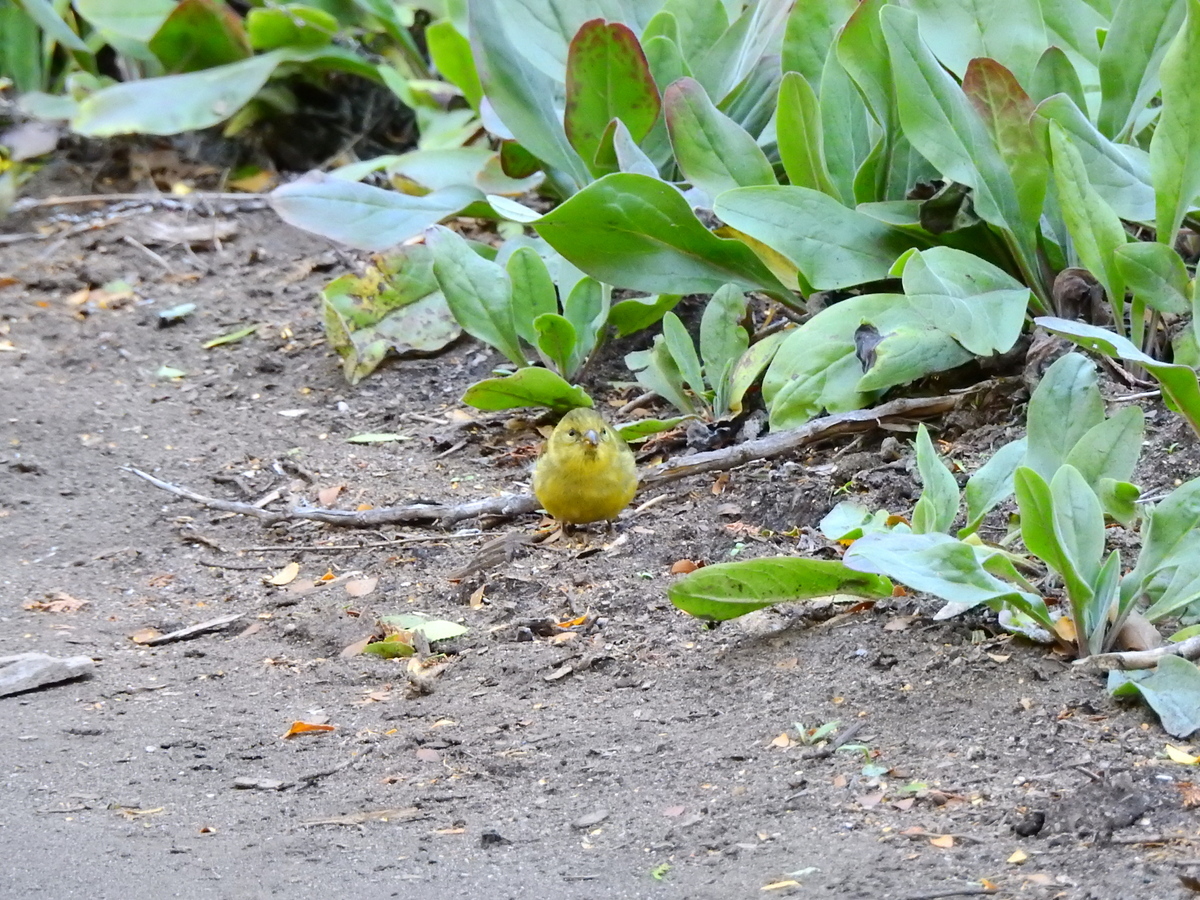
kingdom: Animalia
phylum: Chordata
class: Aves
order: Passeriformes
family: Fringillidae
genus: Spinus
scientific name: Spinus barbatus
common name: Black-chinned siskin
